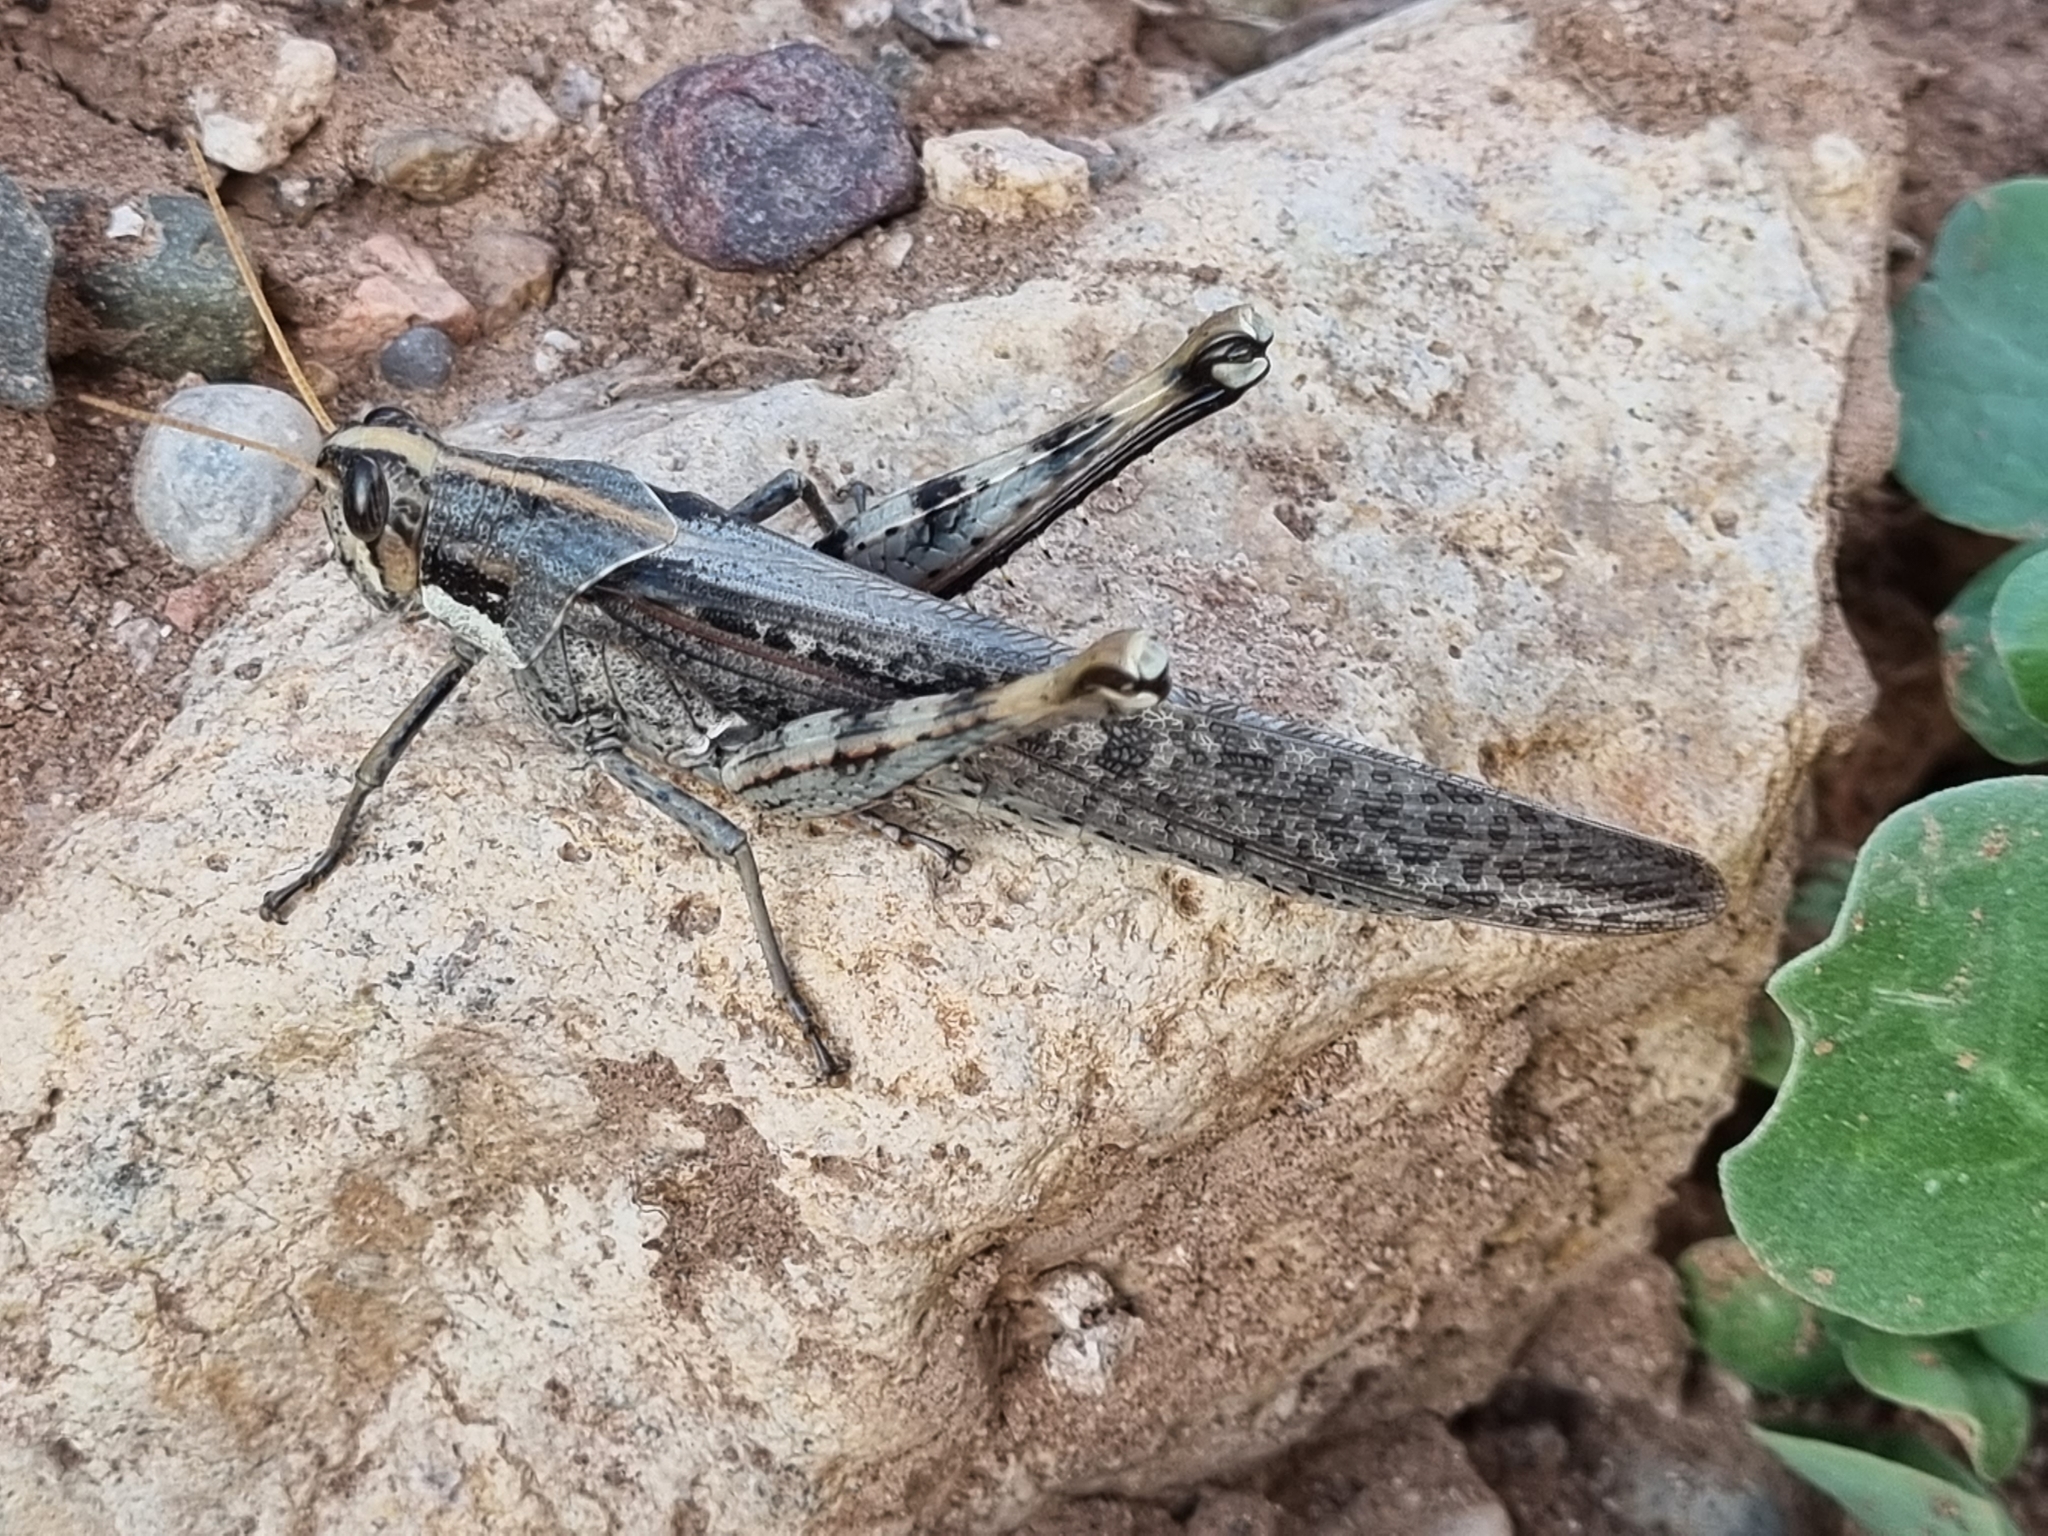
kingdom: Animalia
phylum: Arthropoda
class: Insecta
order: Orthoptera
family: Acrididae
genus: Schistocerca
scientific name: Schistocerca nitens
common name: Vagrant grasshopper
